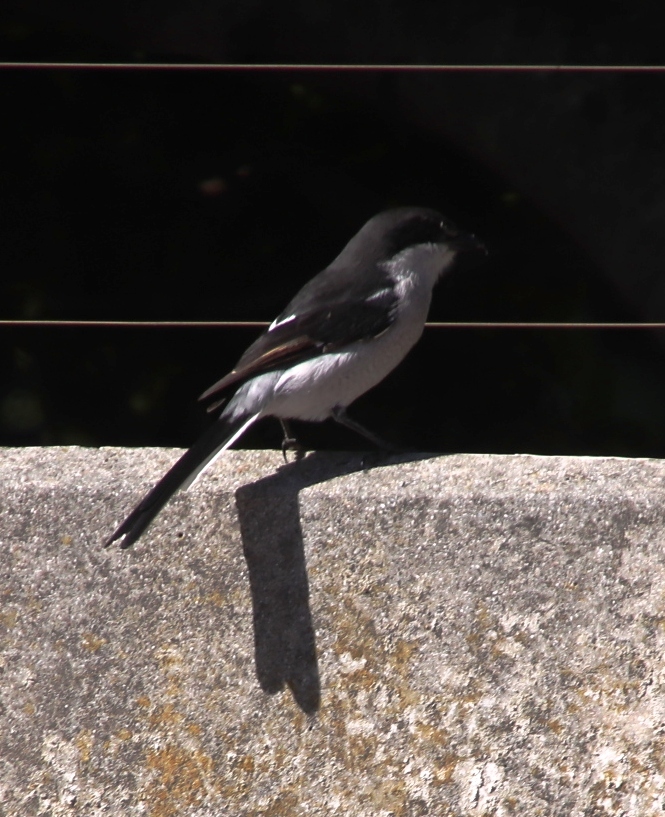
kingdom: Animalia
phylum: Chordata
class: Aves
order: Passeriformes
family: Laniidae
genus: Lanius
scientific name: Lanius collaris
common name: Southern fiscal
